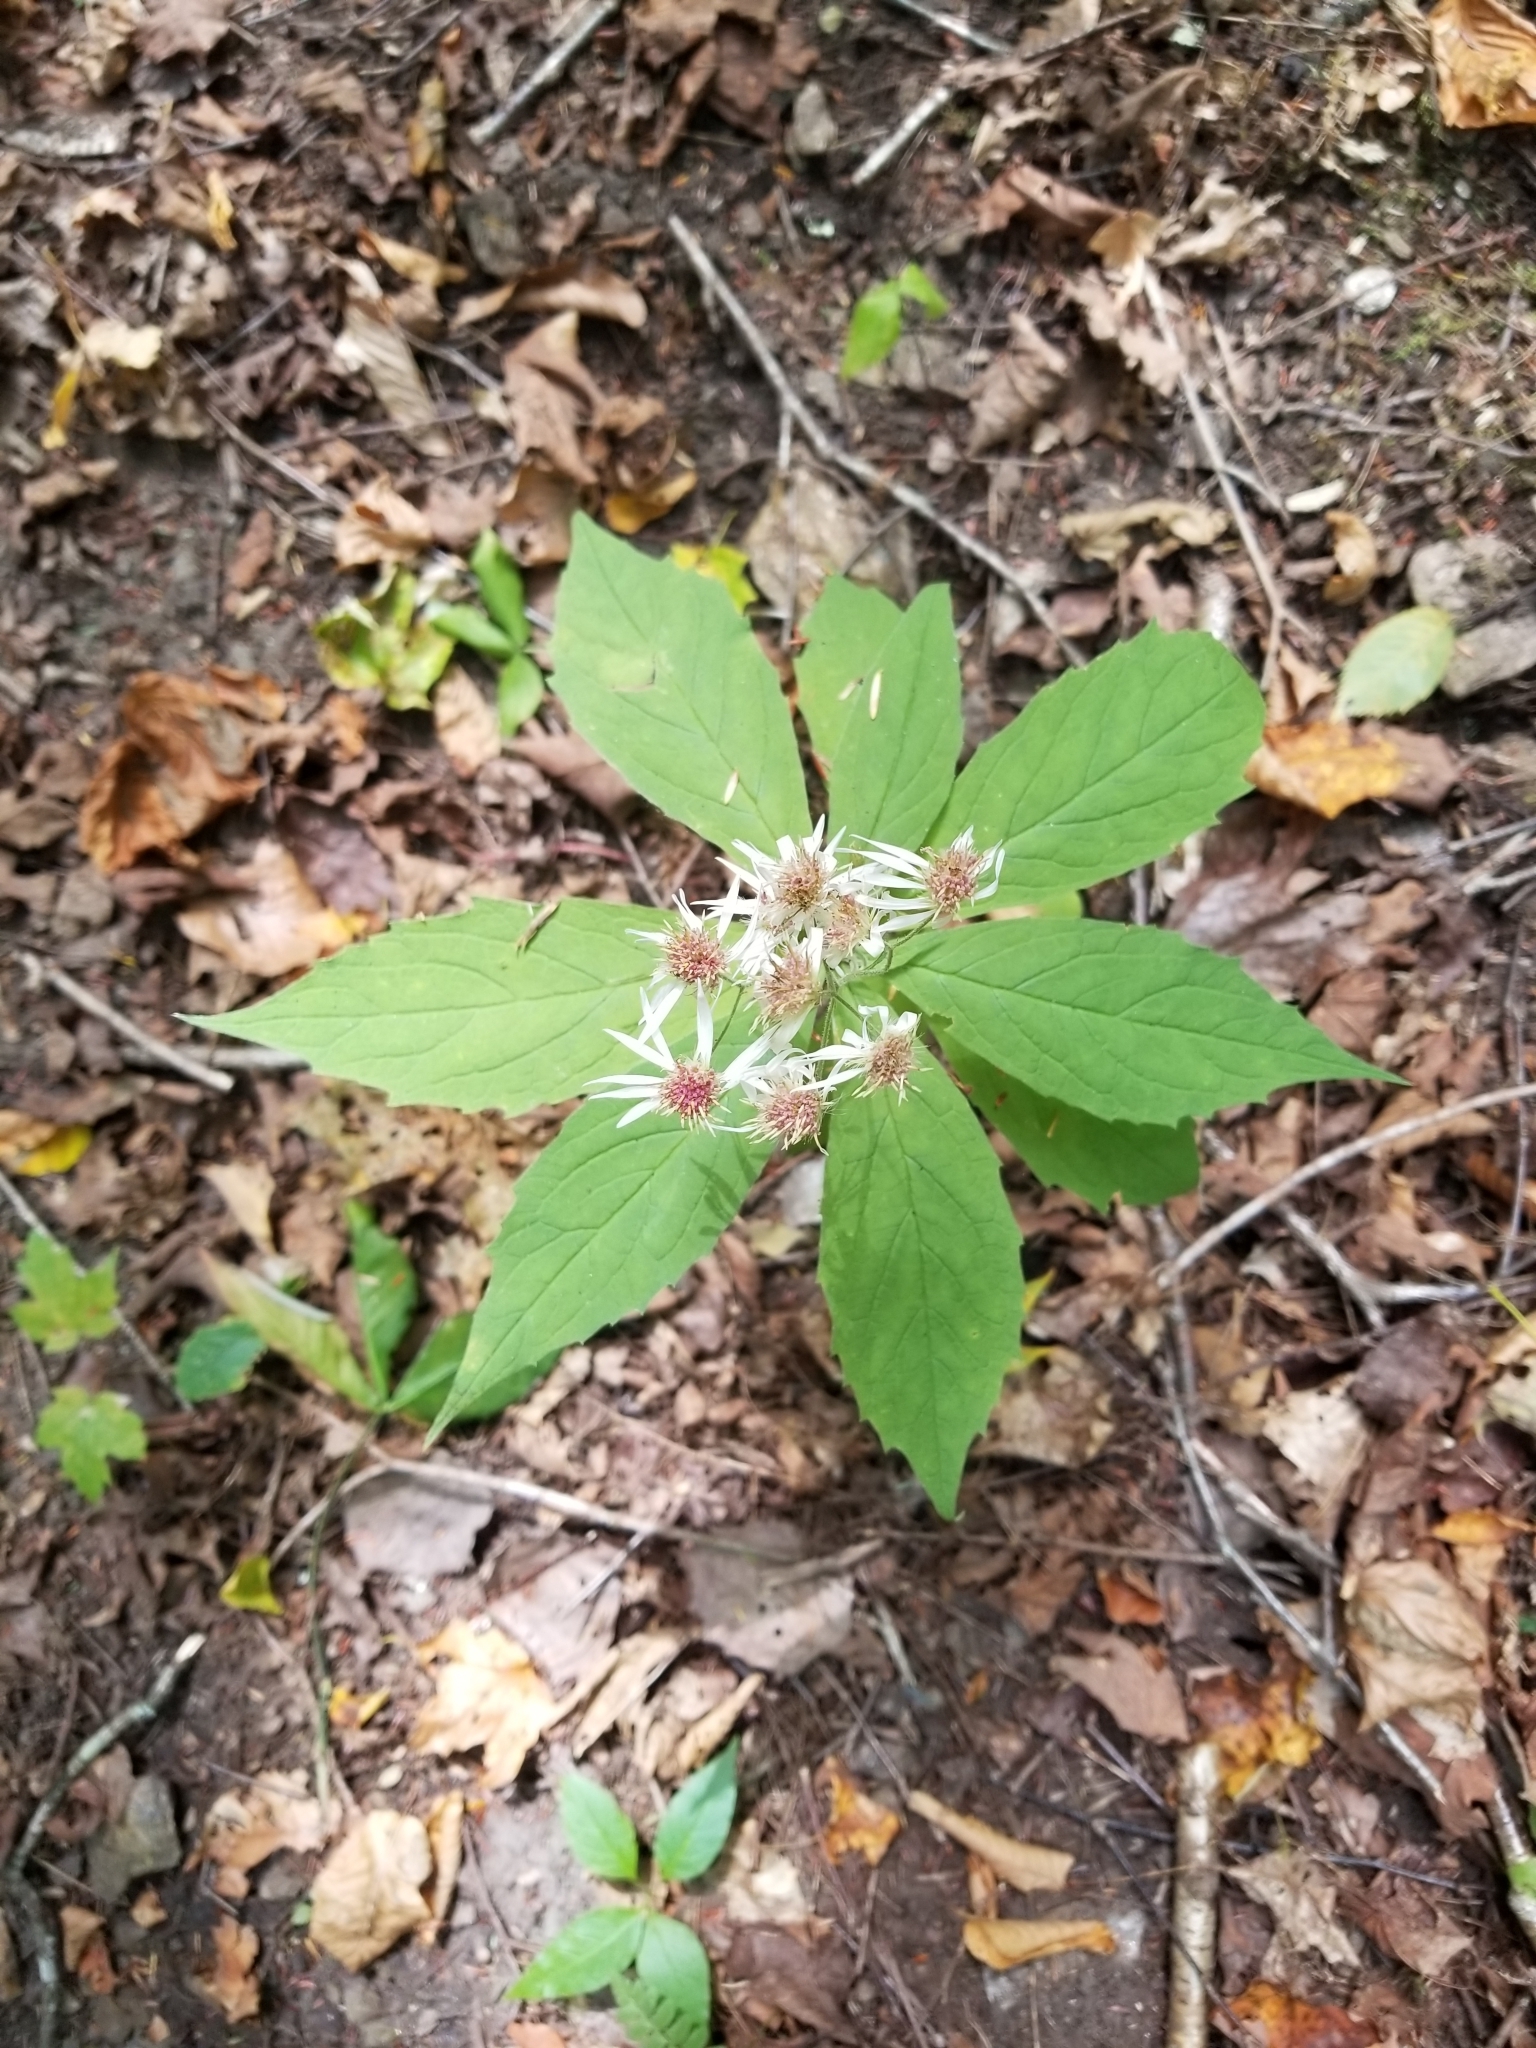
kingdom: Plantae
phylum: Tracheophyta
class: Magnoliopsida
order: Asterales
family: Asteraceae
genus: Oclemena
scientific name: Oclemena acuminata
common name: Mountain aster
